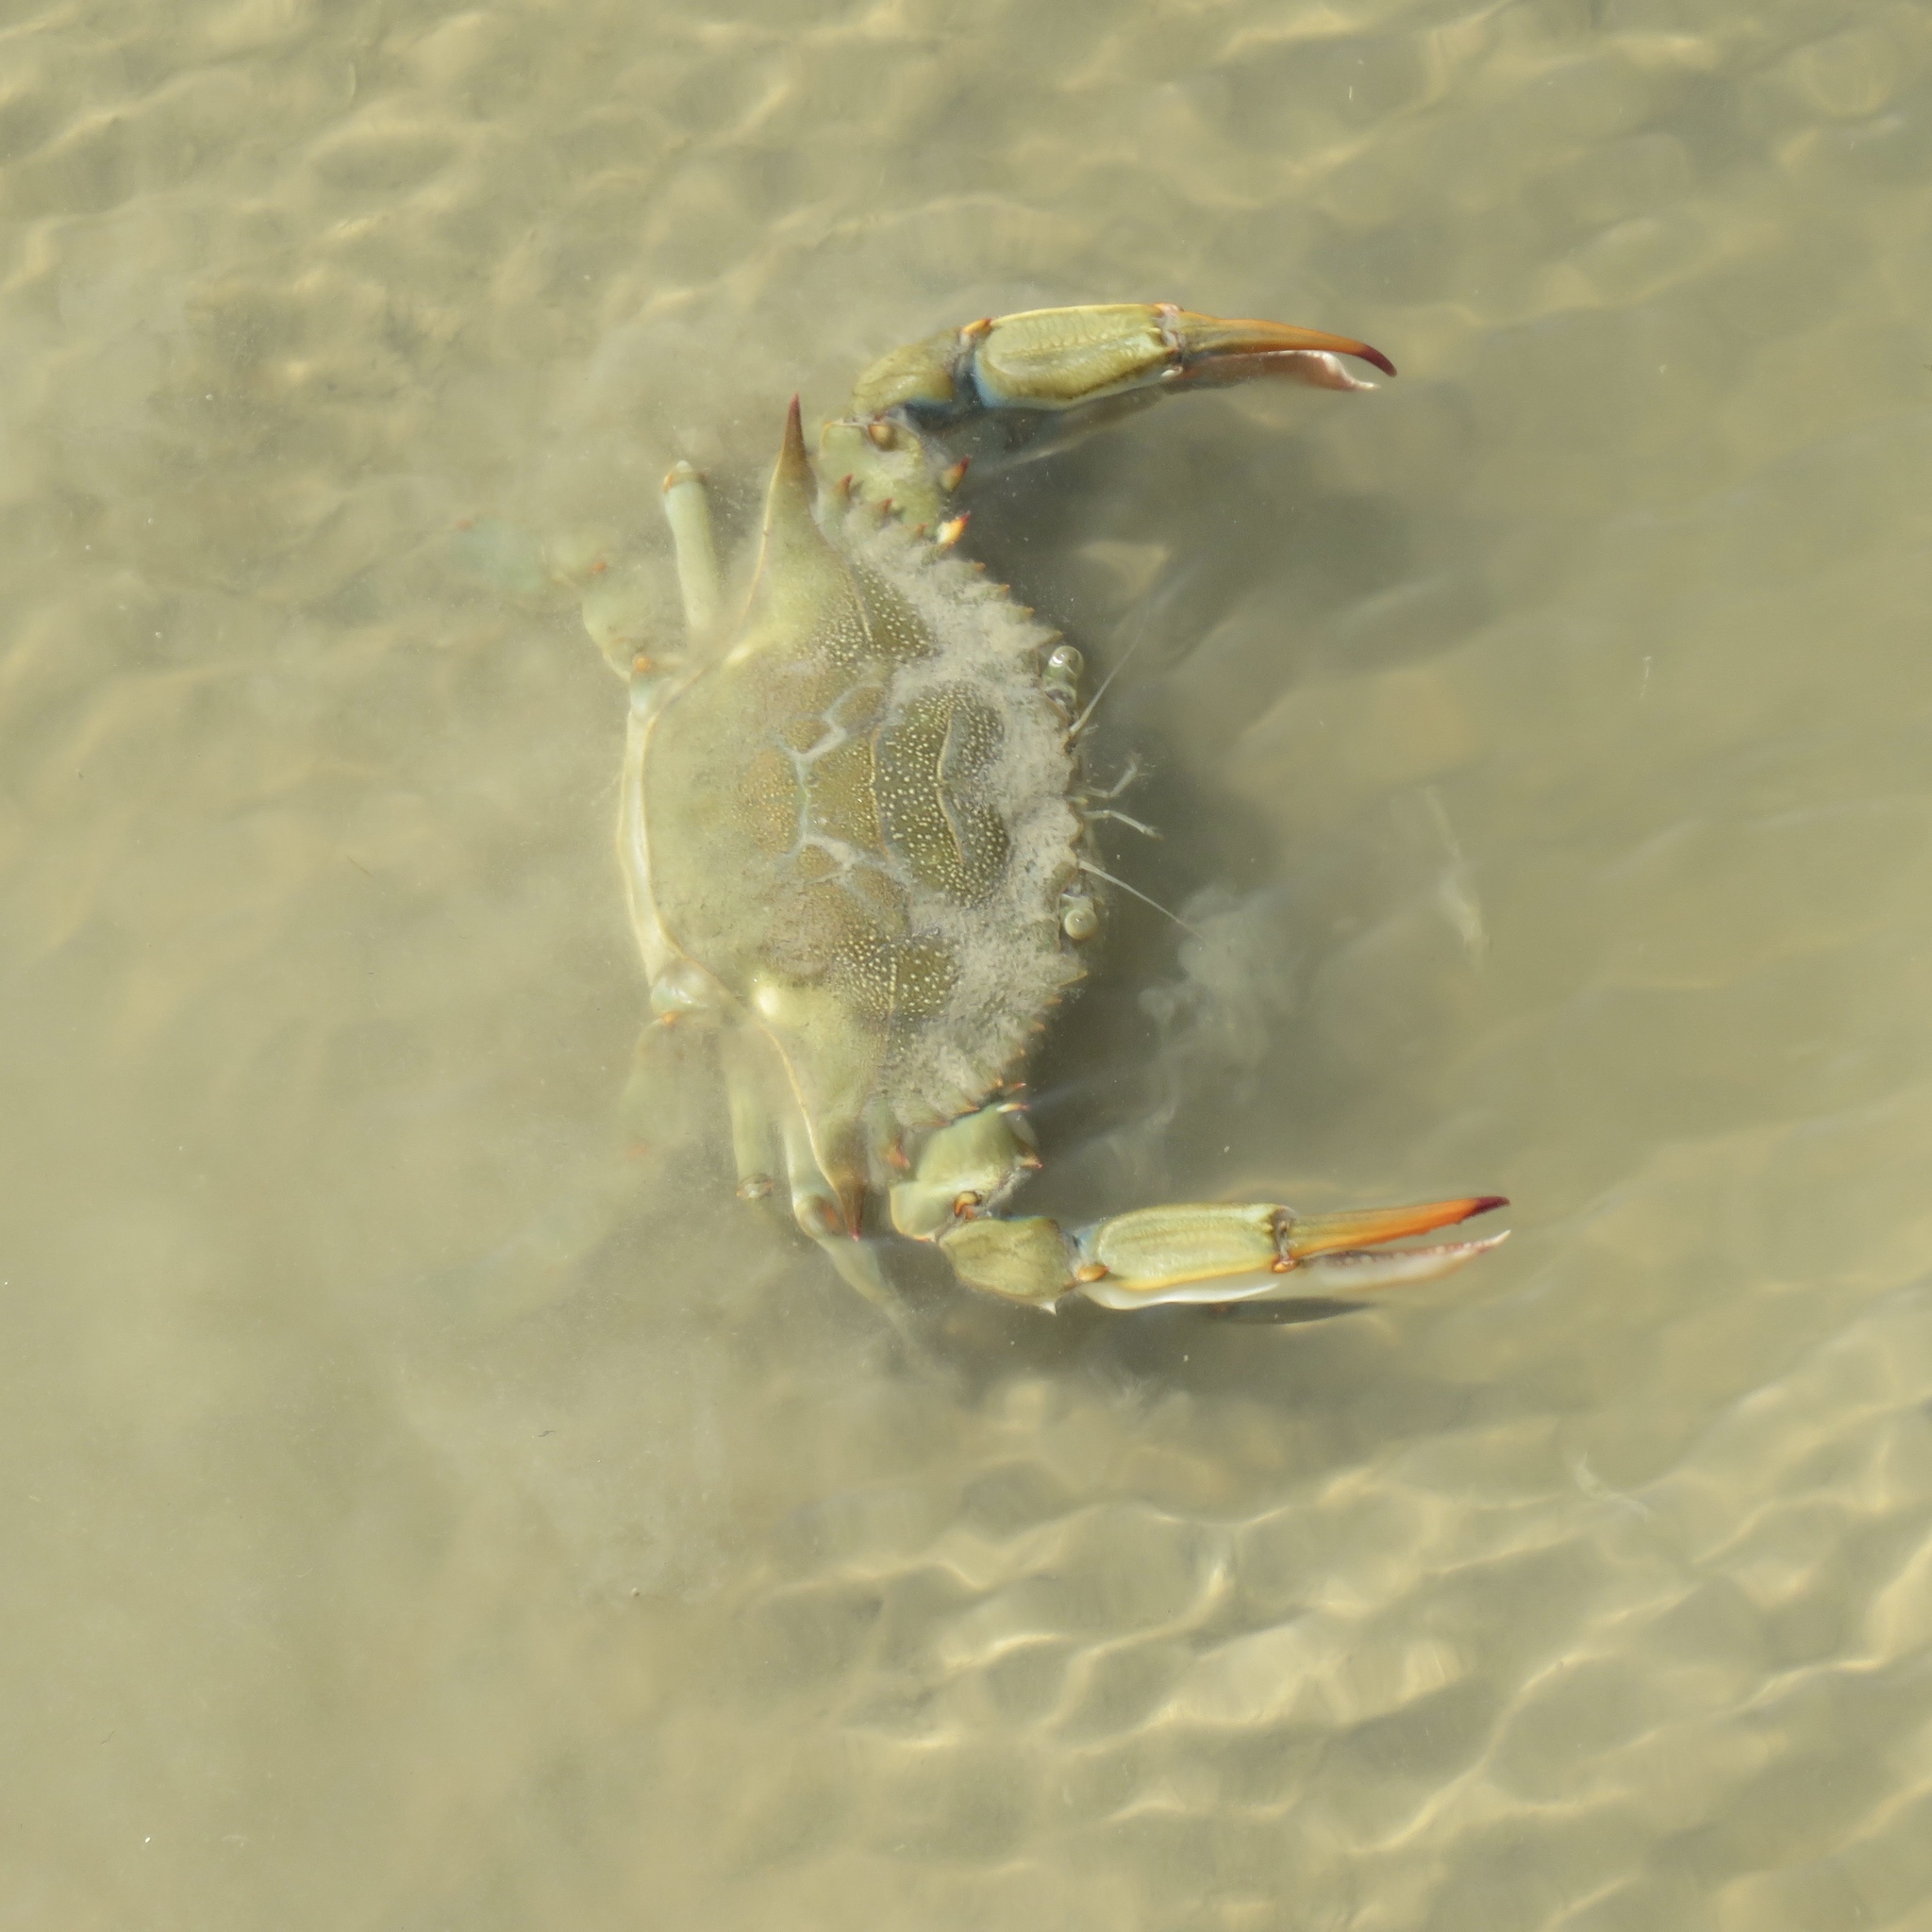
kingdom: Animalia
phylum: Arthropoda
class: Malacostraca
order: Decapoda
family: Portunidae
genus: Callinectes
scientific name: Callinectes sapidus
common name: Blue crab
